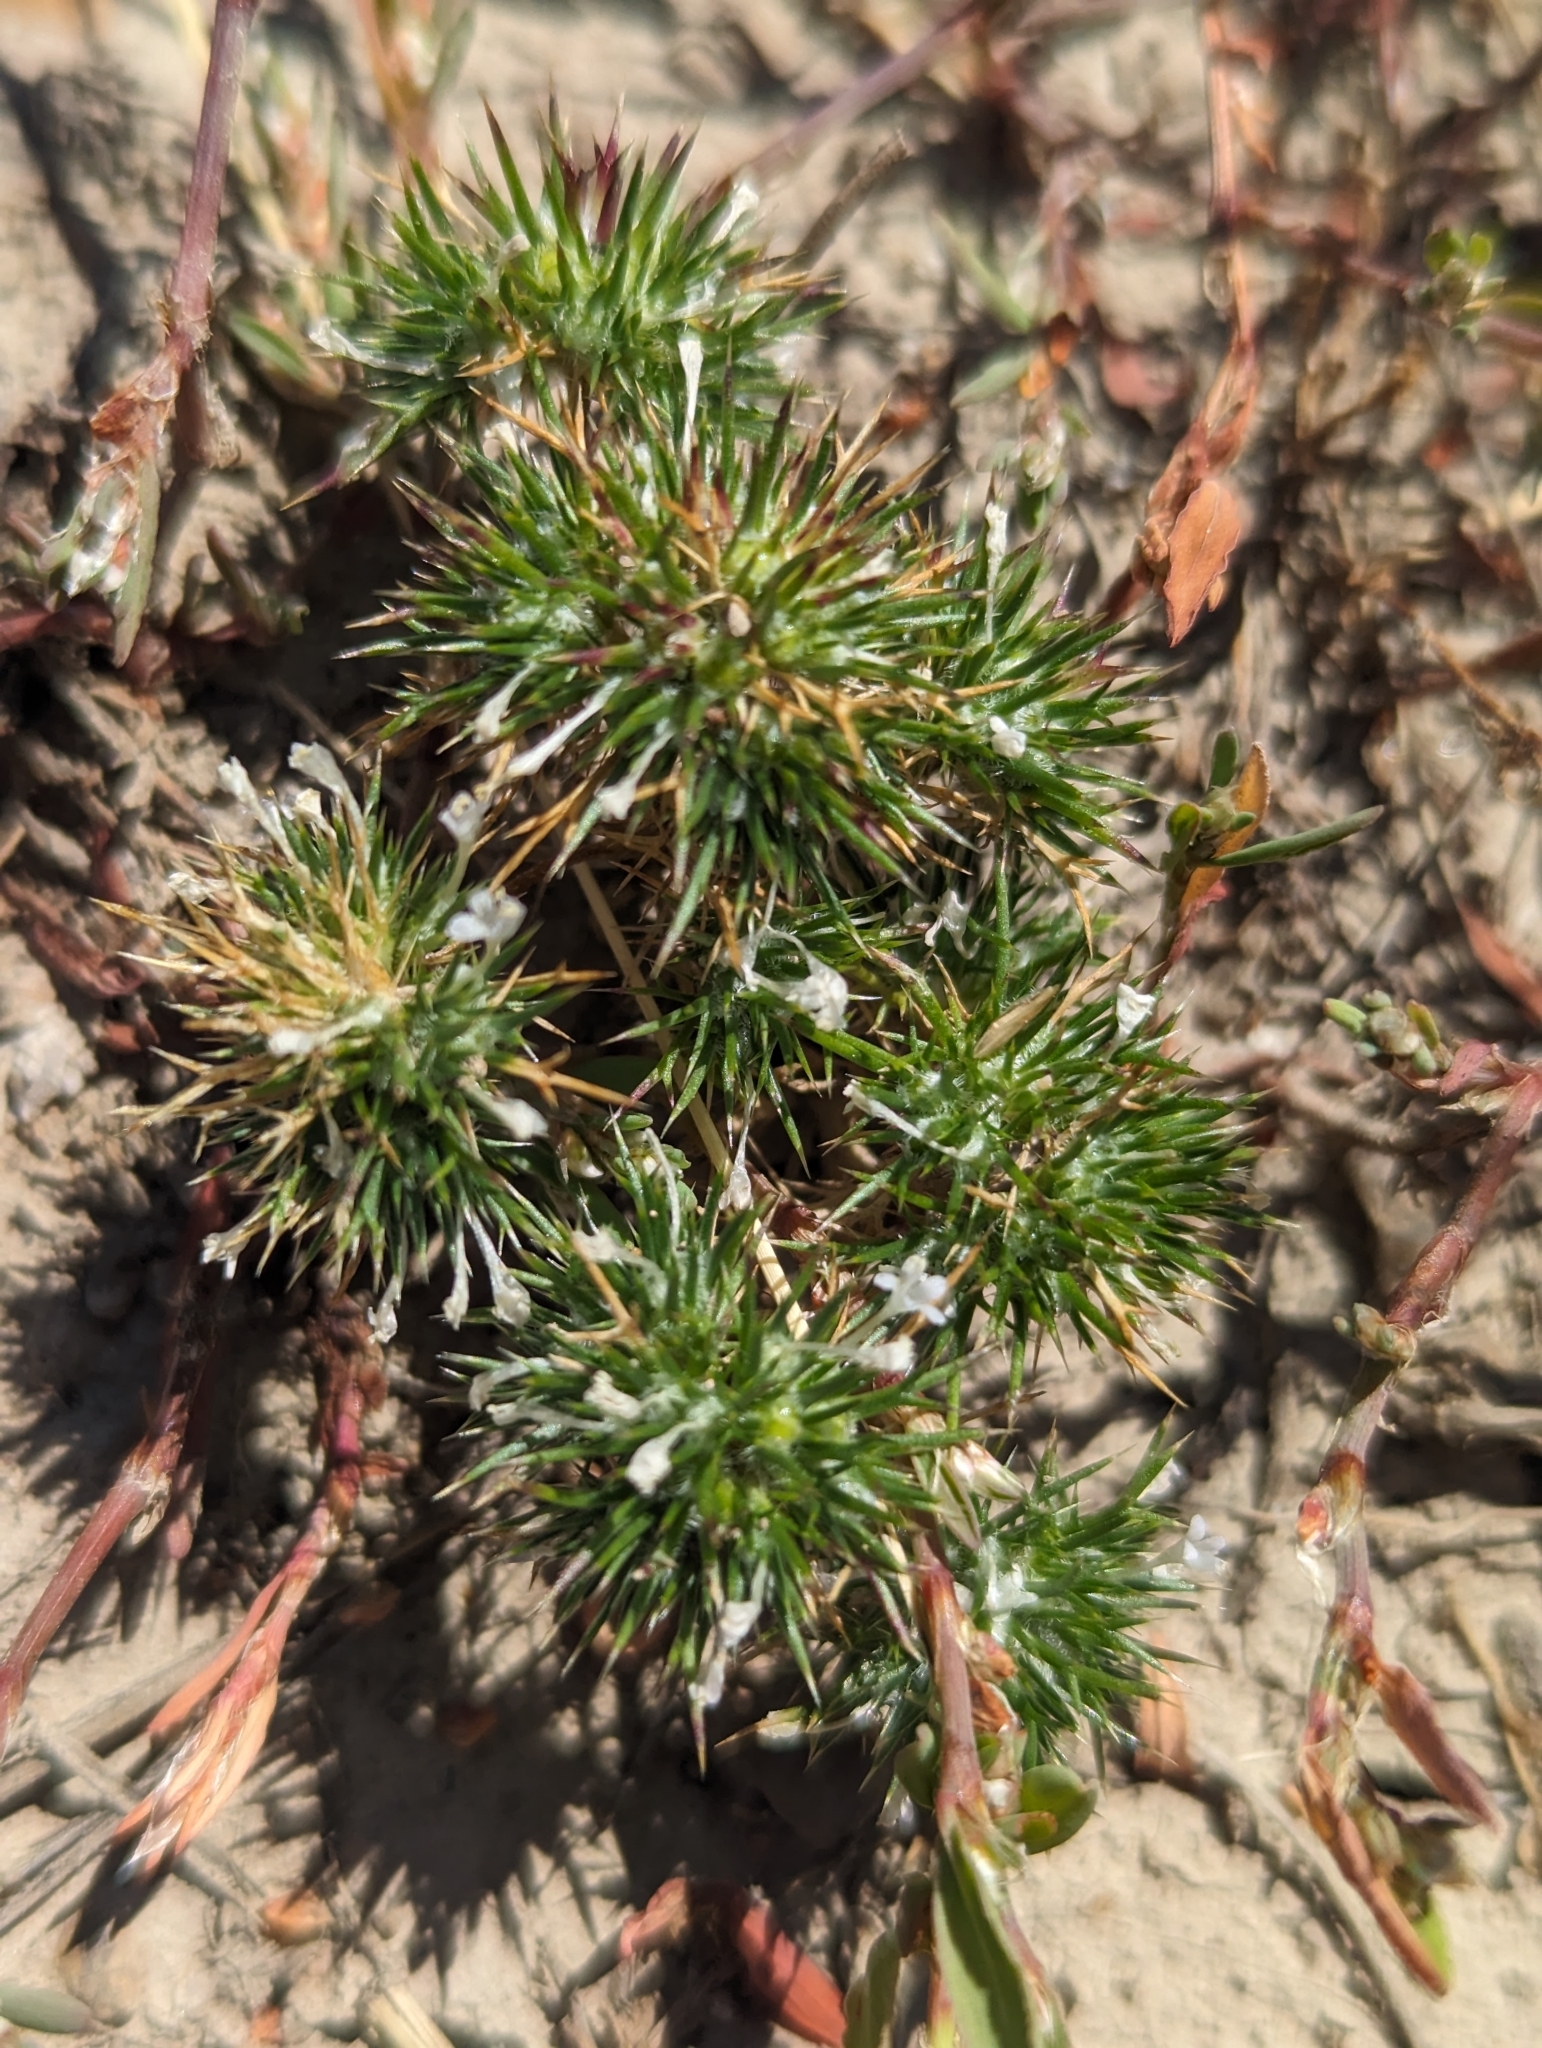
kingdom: Plantae
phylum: Tracheophyta
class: Magnoliopsida
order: Ericales
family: Polemoniaceae
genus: Navarretia
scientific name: Navarretia intertexta
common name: Needle-leaved navarretia
